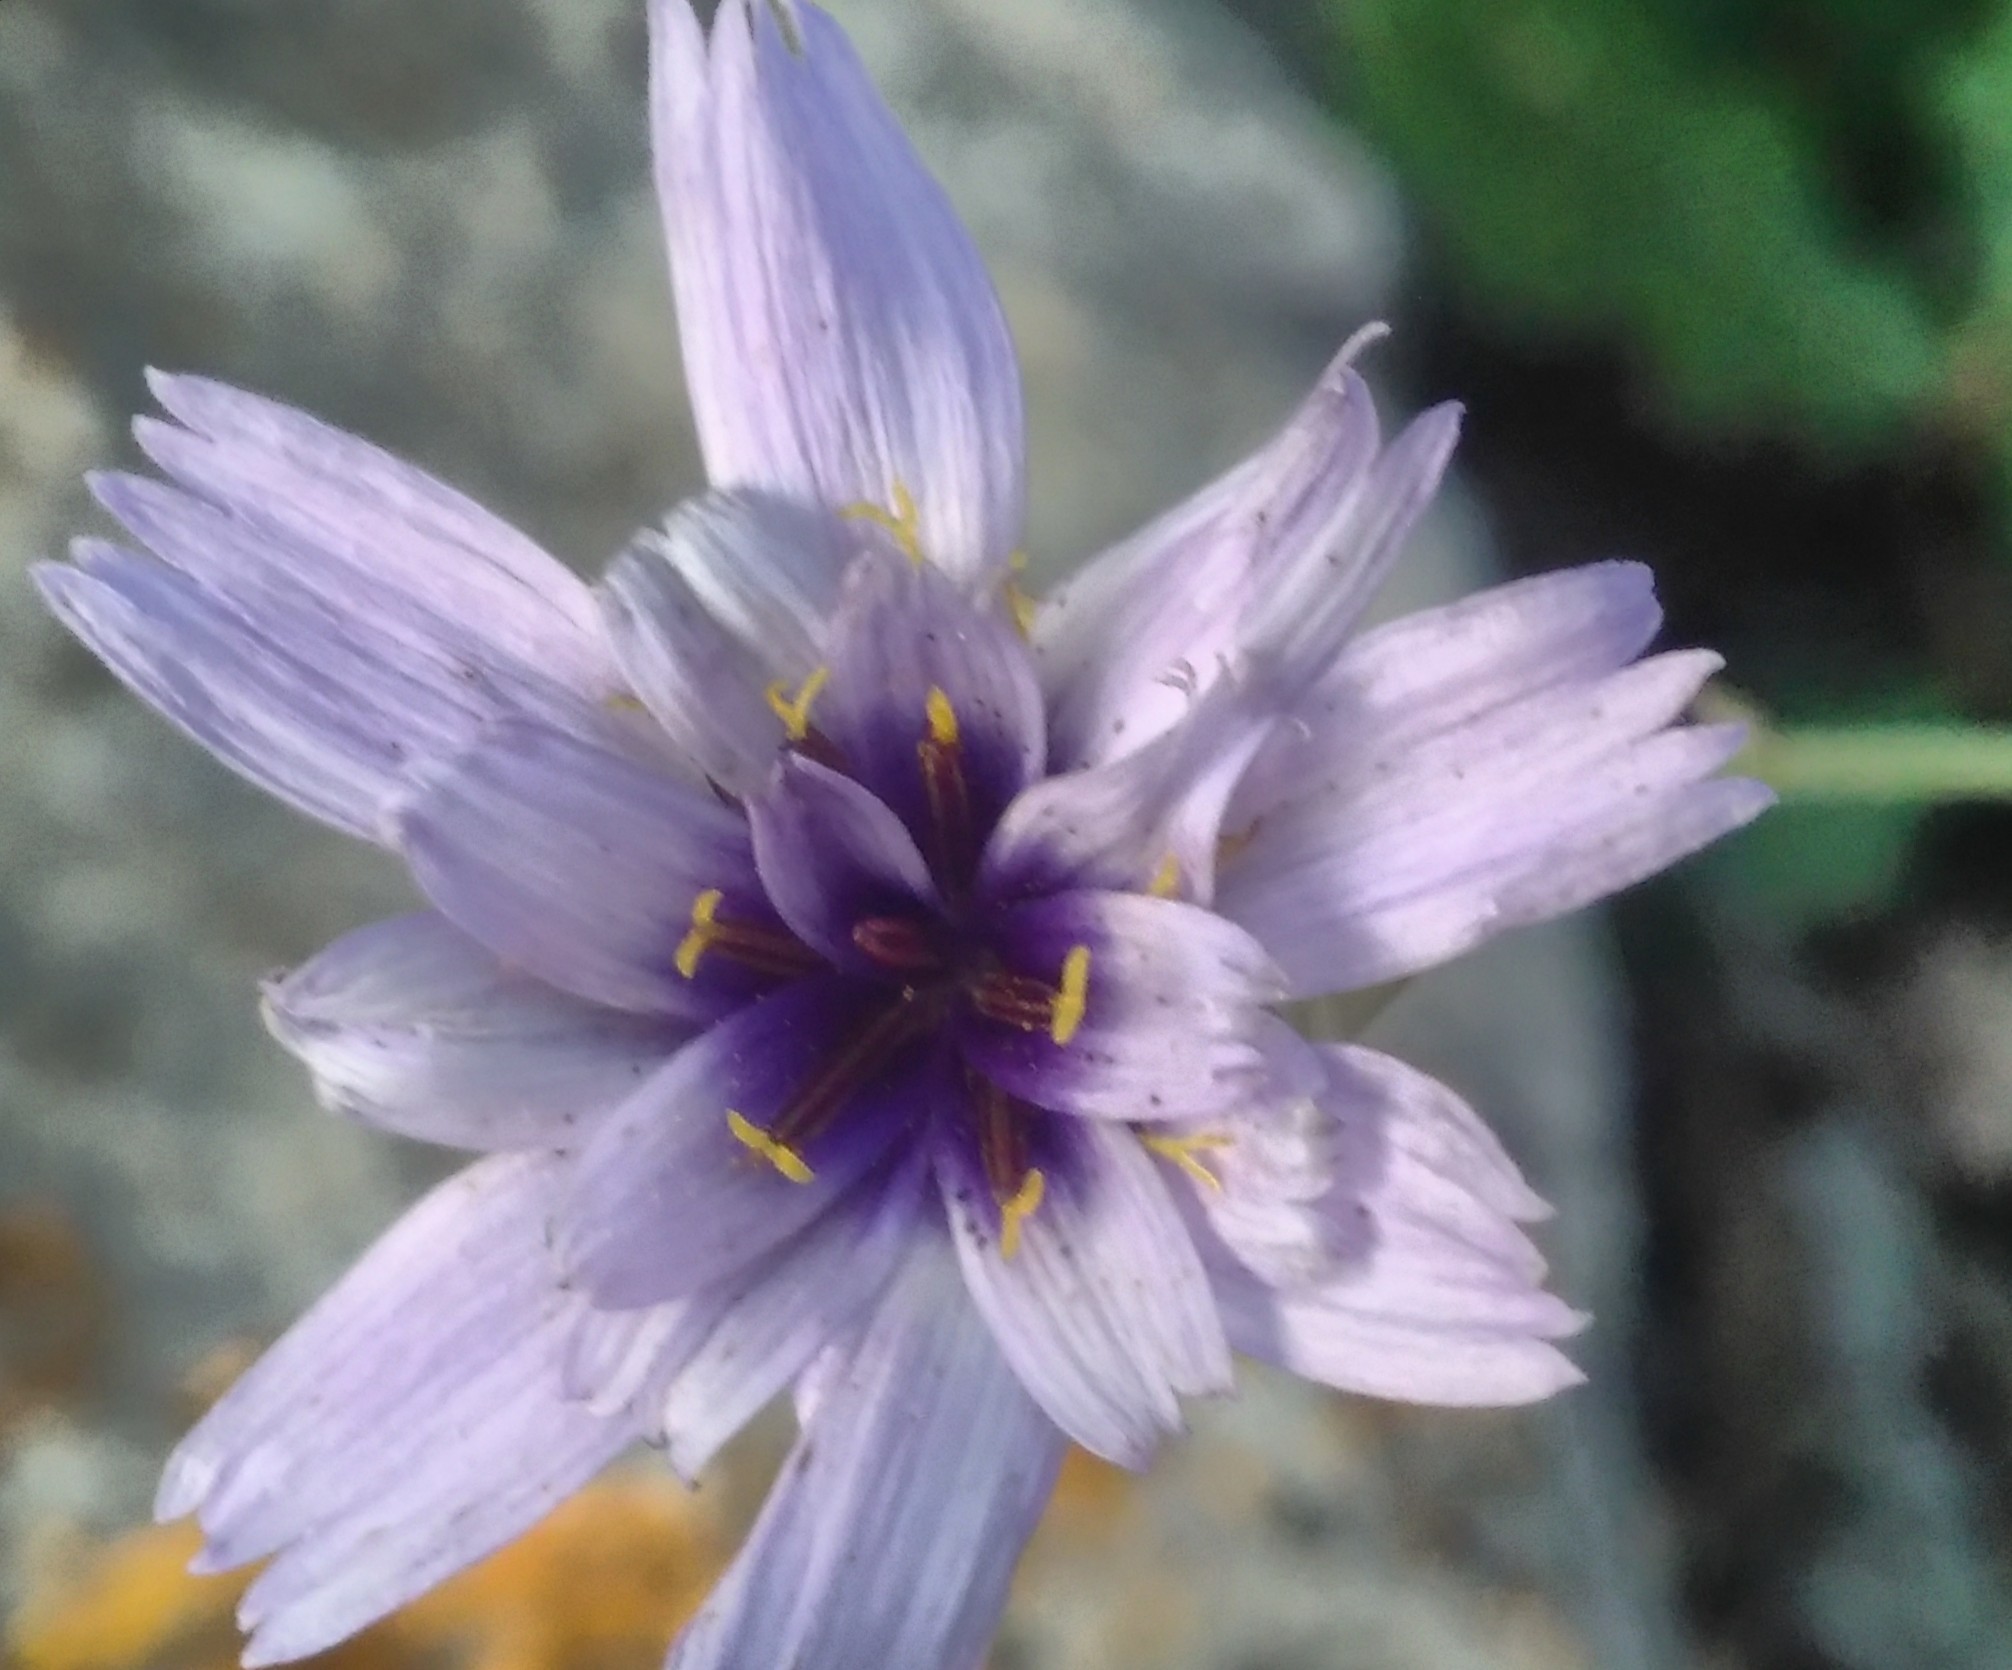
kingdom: Plantae
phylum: Tracheophyta
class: Magnoliopsida
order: Asterales
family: Asteraceae
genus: Catananche
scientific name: Catananche caerulea
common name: Blue cupidone
